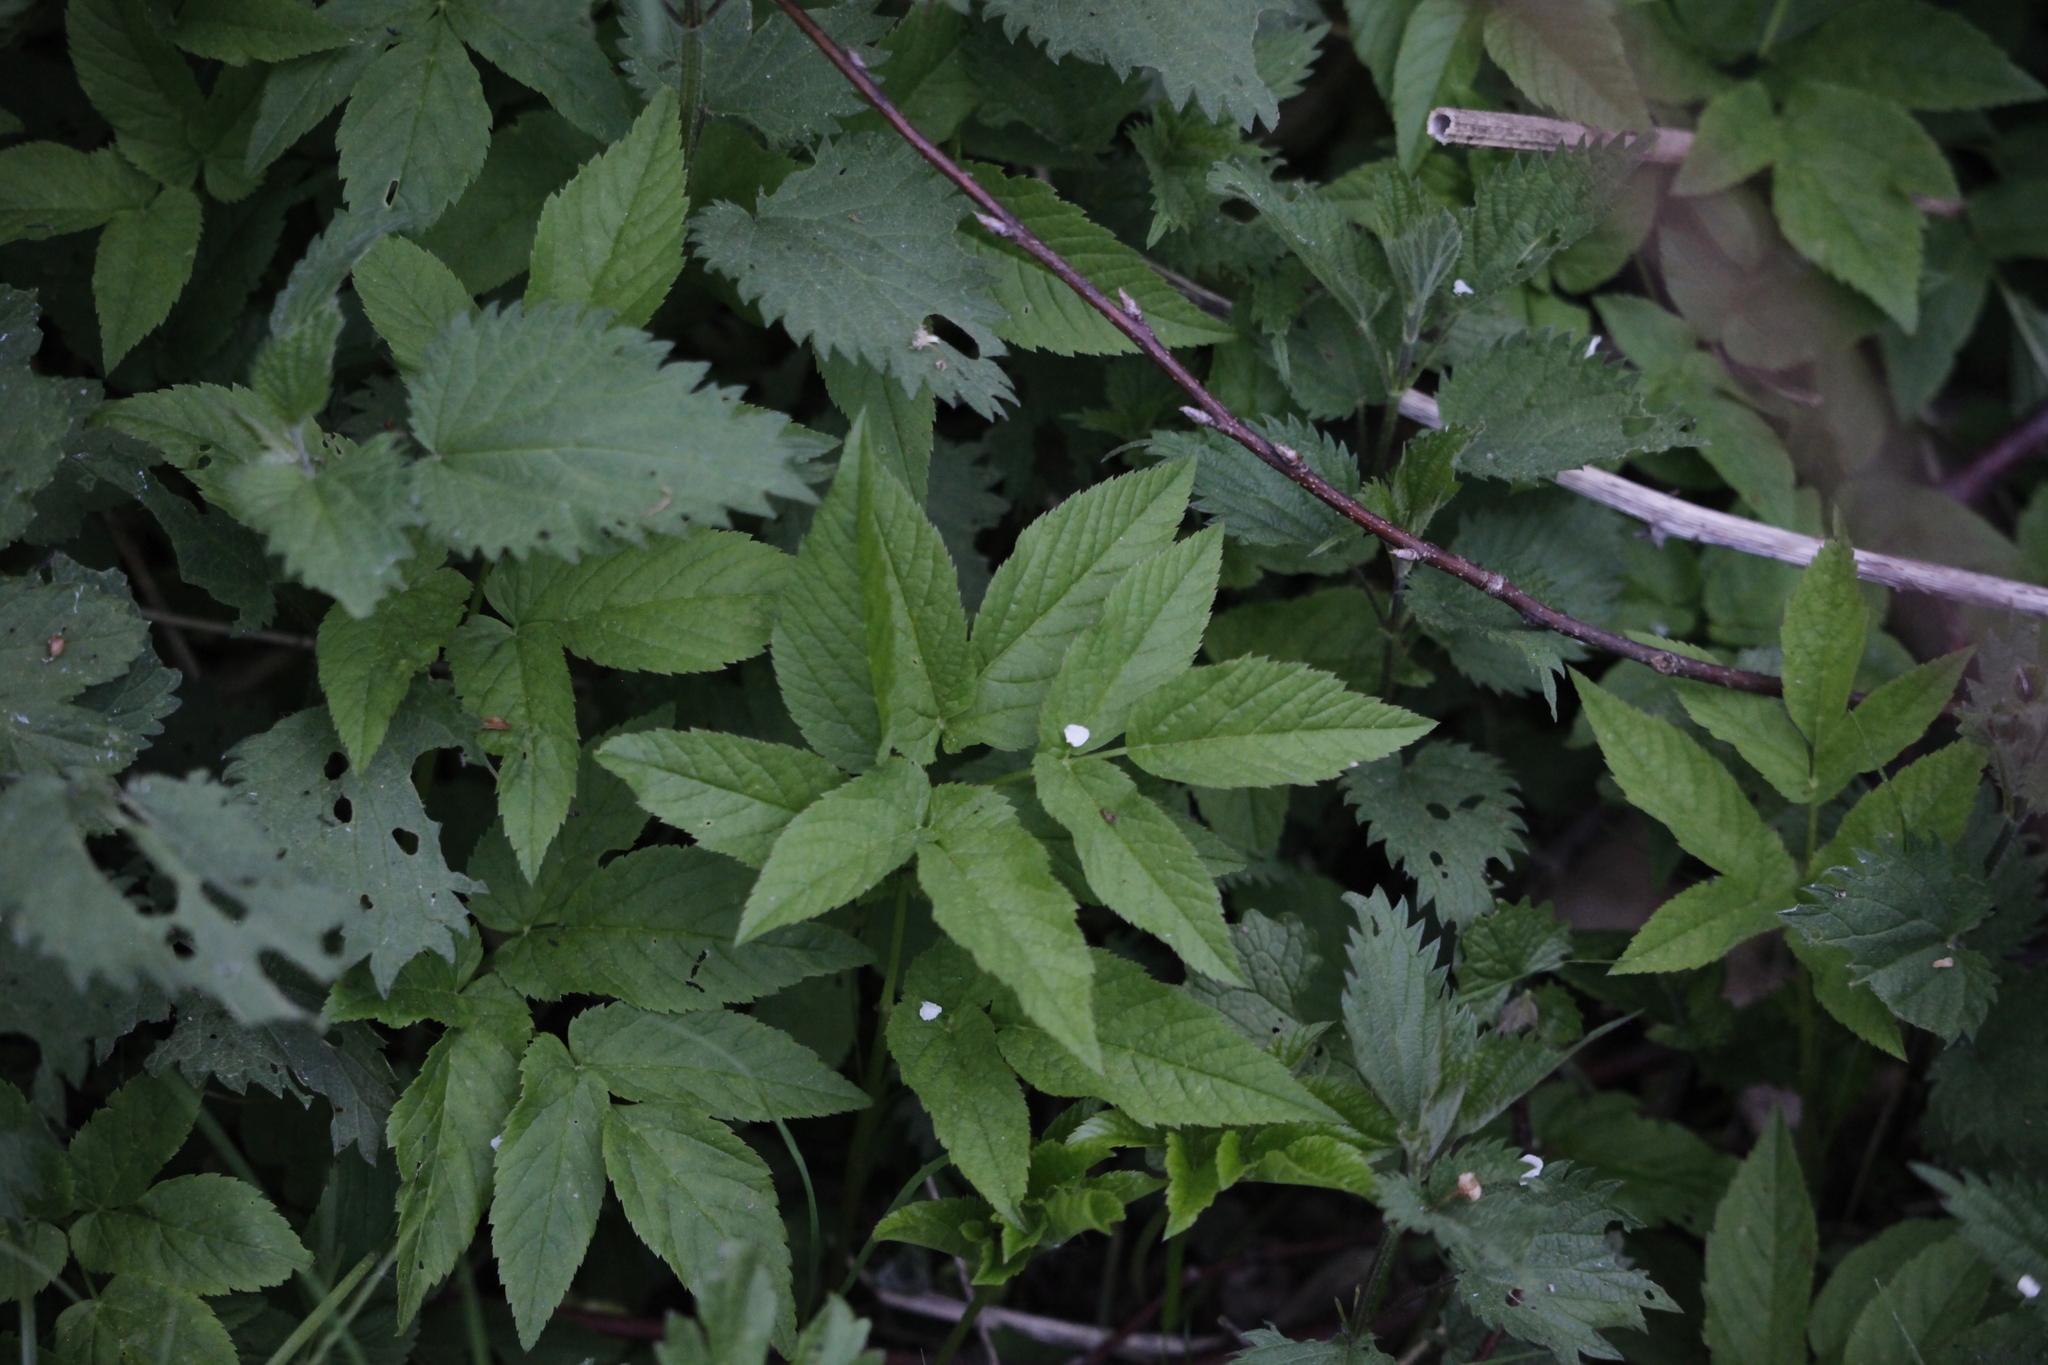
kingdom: Plantae
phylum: Tracheophyta
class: Magnoliopsida
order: Apiales
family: Apiaceae
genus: Aegopodium
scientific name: Aegopodium podagraria
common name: Ground-elder
